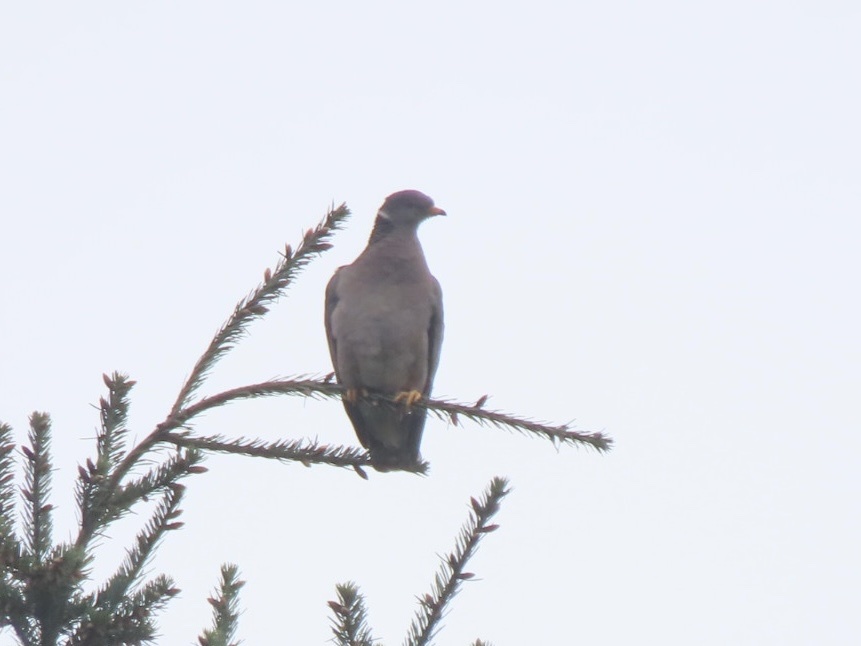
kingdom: Animalia
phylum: Chordata
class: Aves
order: Columbiformes
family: Columbidae
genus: Patagioenas
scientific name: Patagioenas fasciata
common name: Band-tailed pigeon
